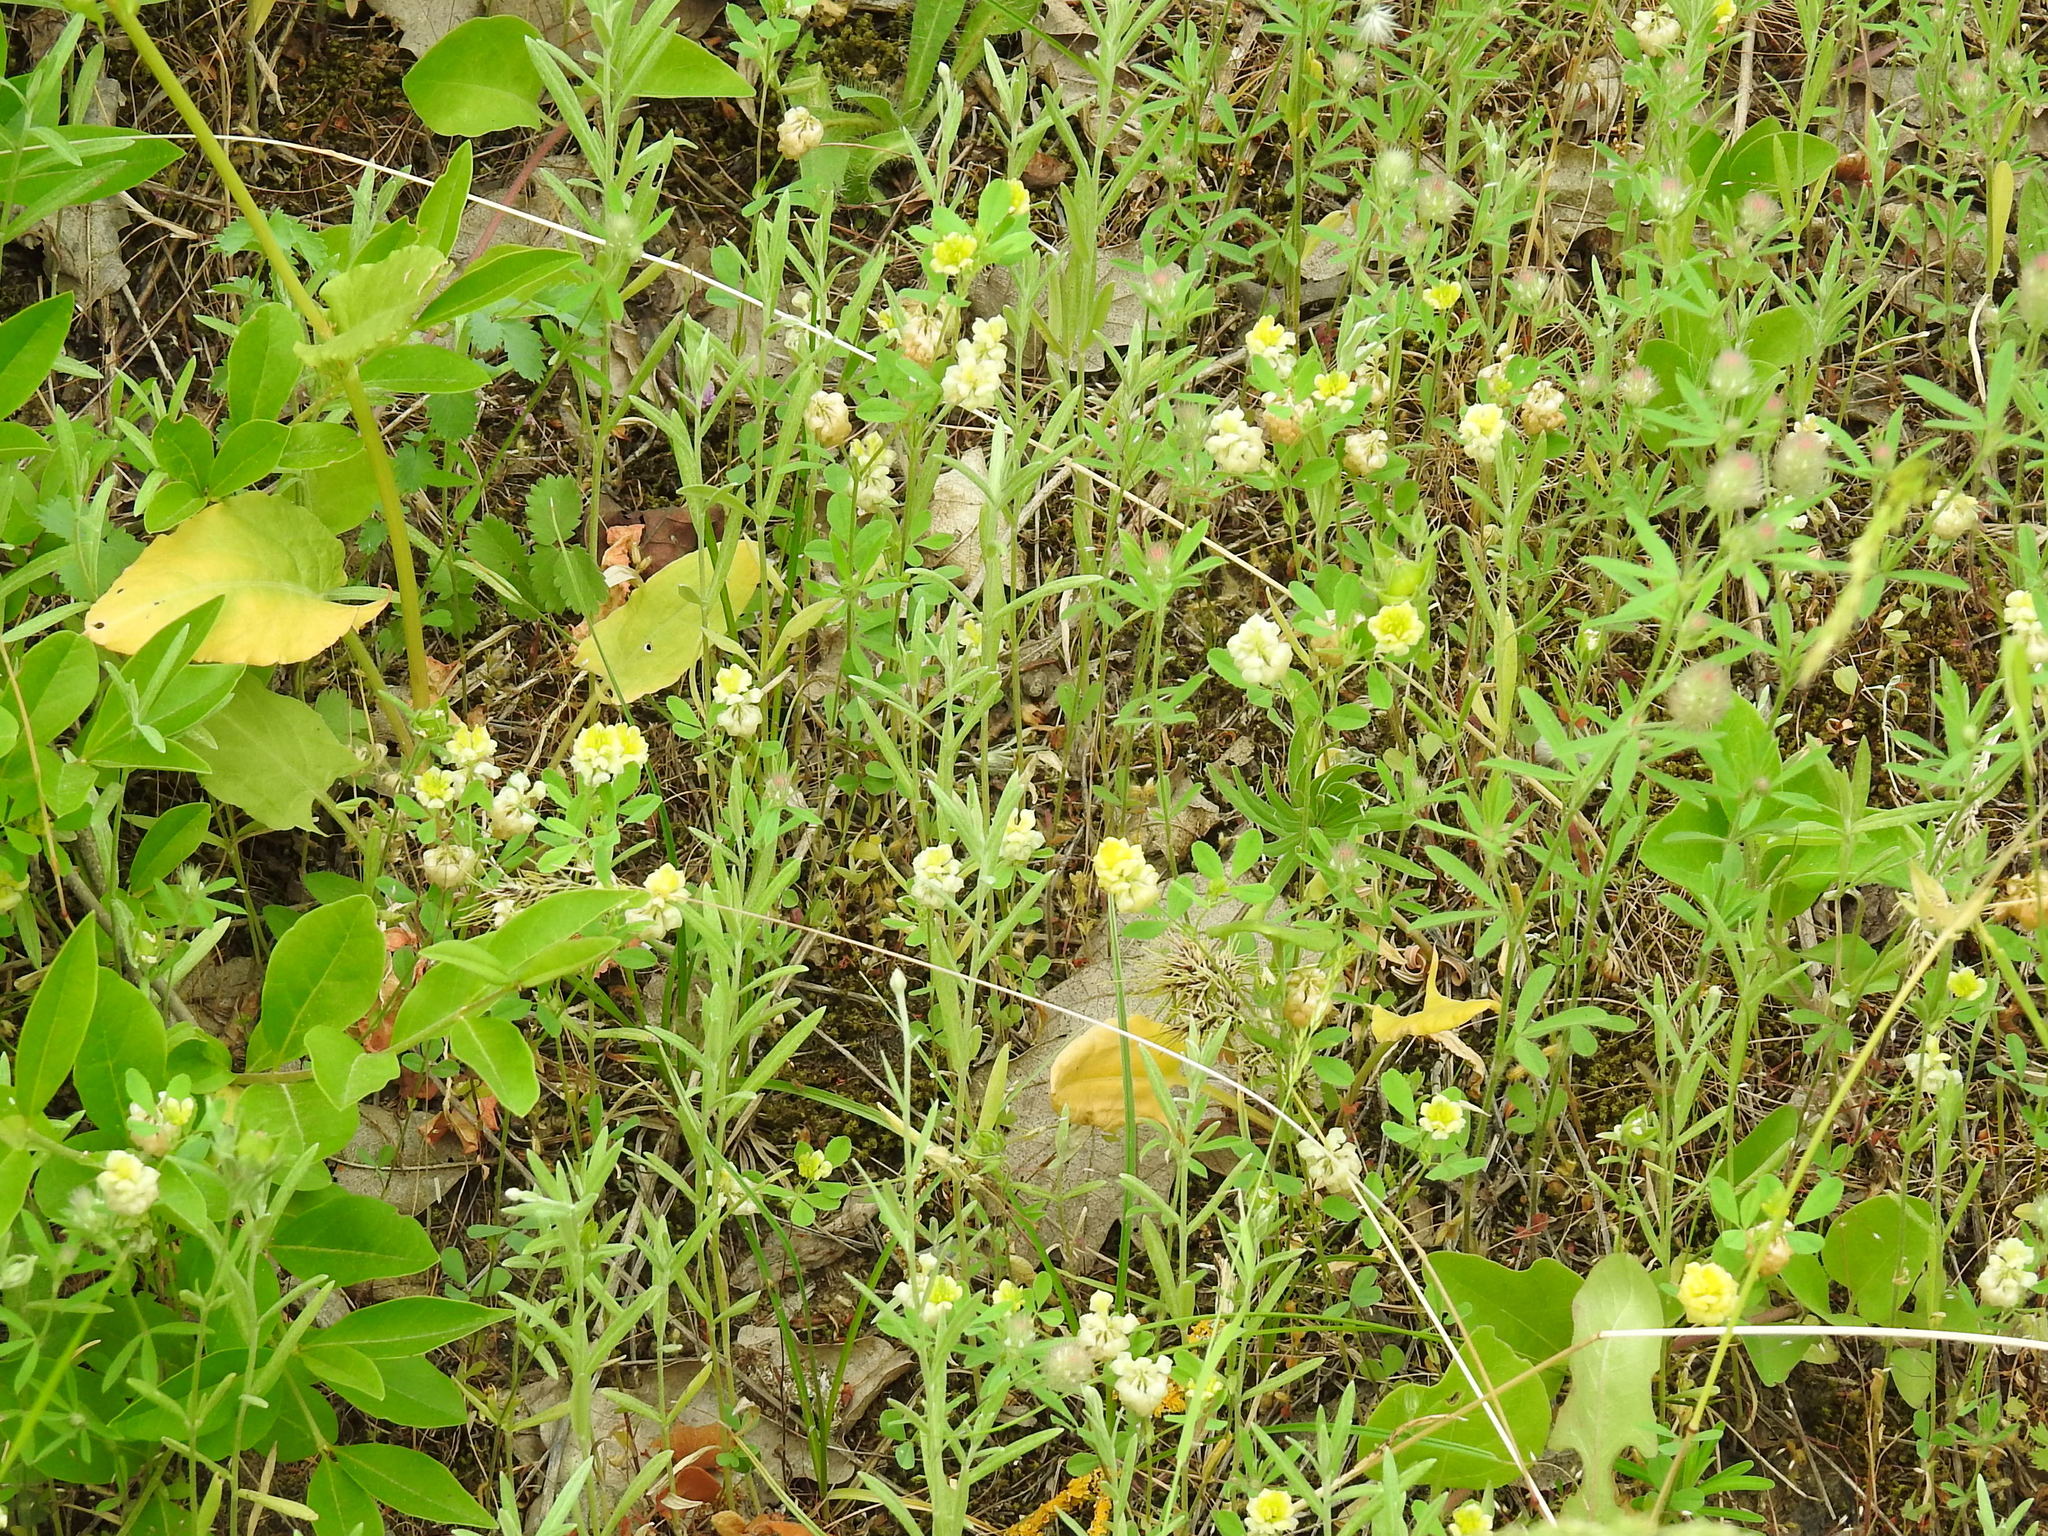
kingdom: Plantae
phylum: Tracheophyta
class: Magnoliopsida
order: Fabales
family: Fabaceae
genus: Trifolium
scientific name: Trifolium campestre
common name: Field clover
